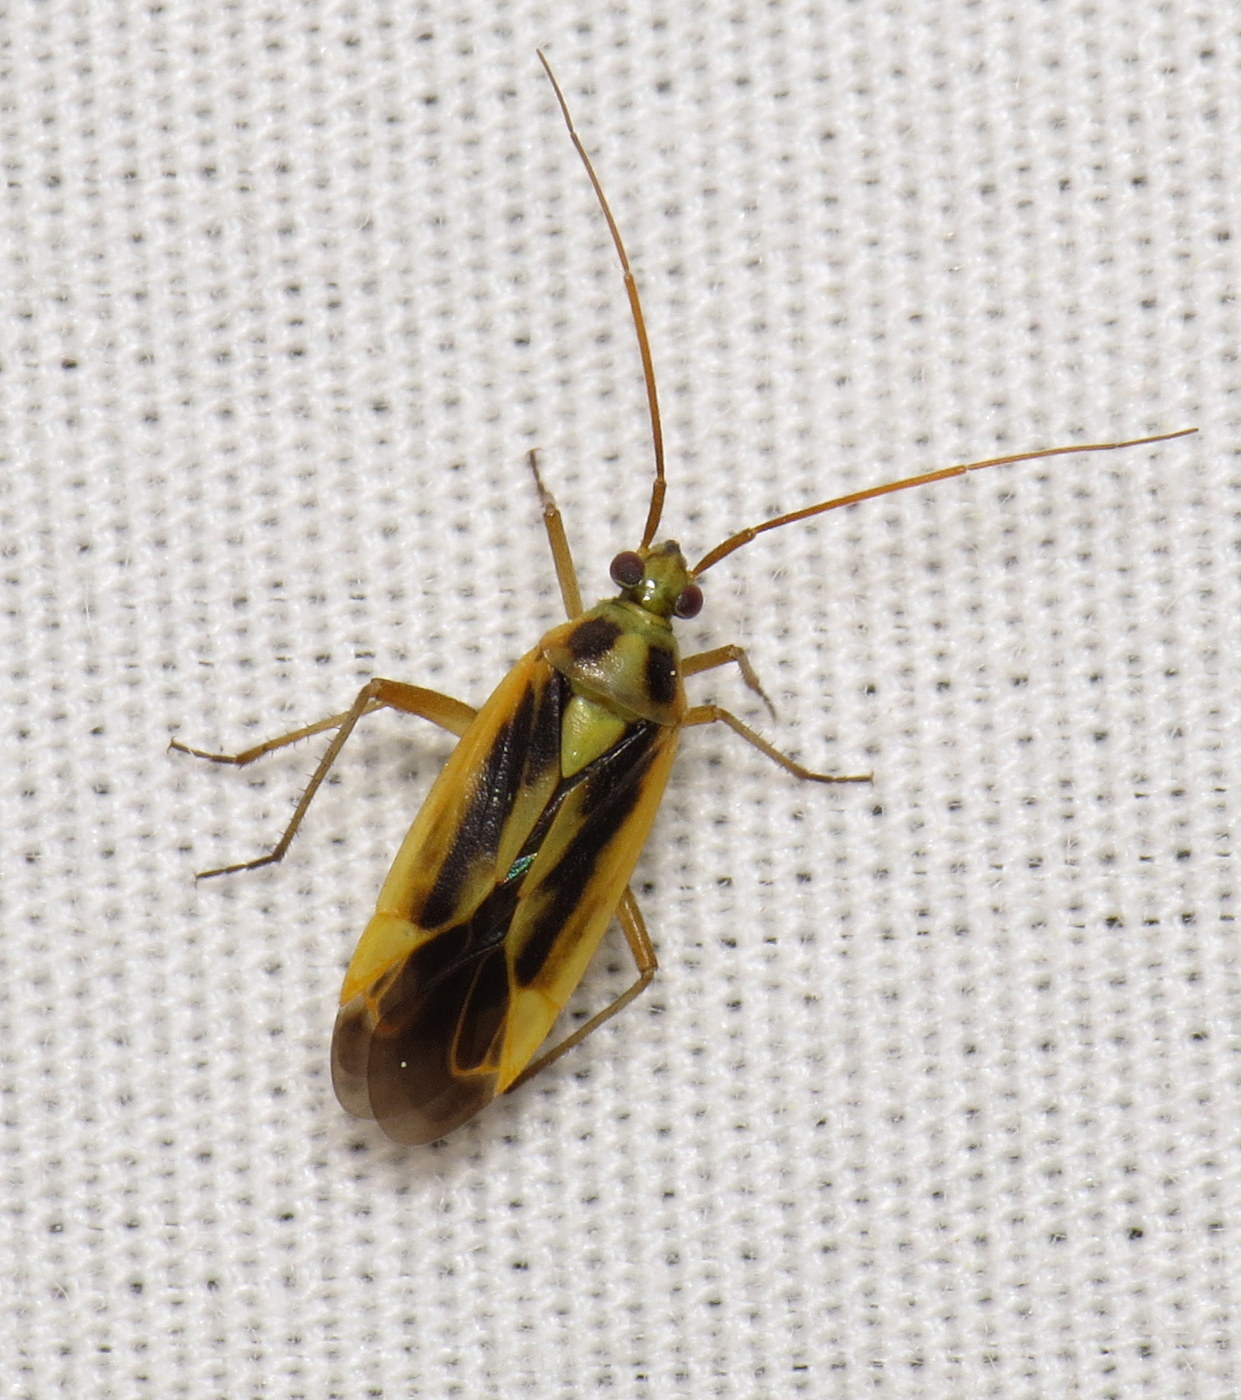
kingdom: Animalia
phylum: Arthropoda
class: Insecta
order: Hemiptera
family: Miridae
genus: Stenotus
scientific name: Stenotus binotatus
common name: Plant bug
